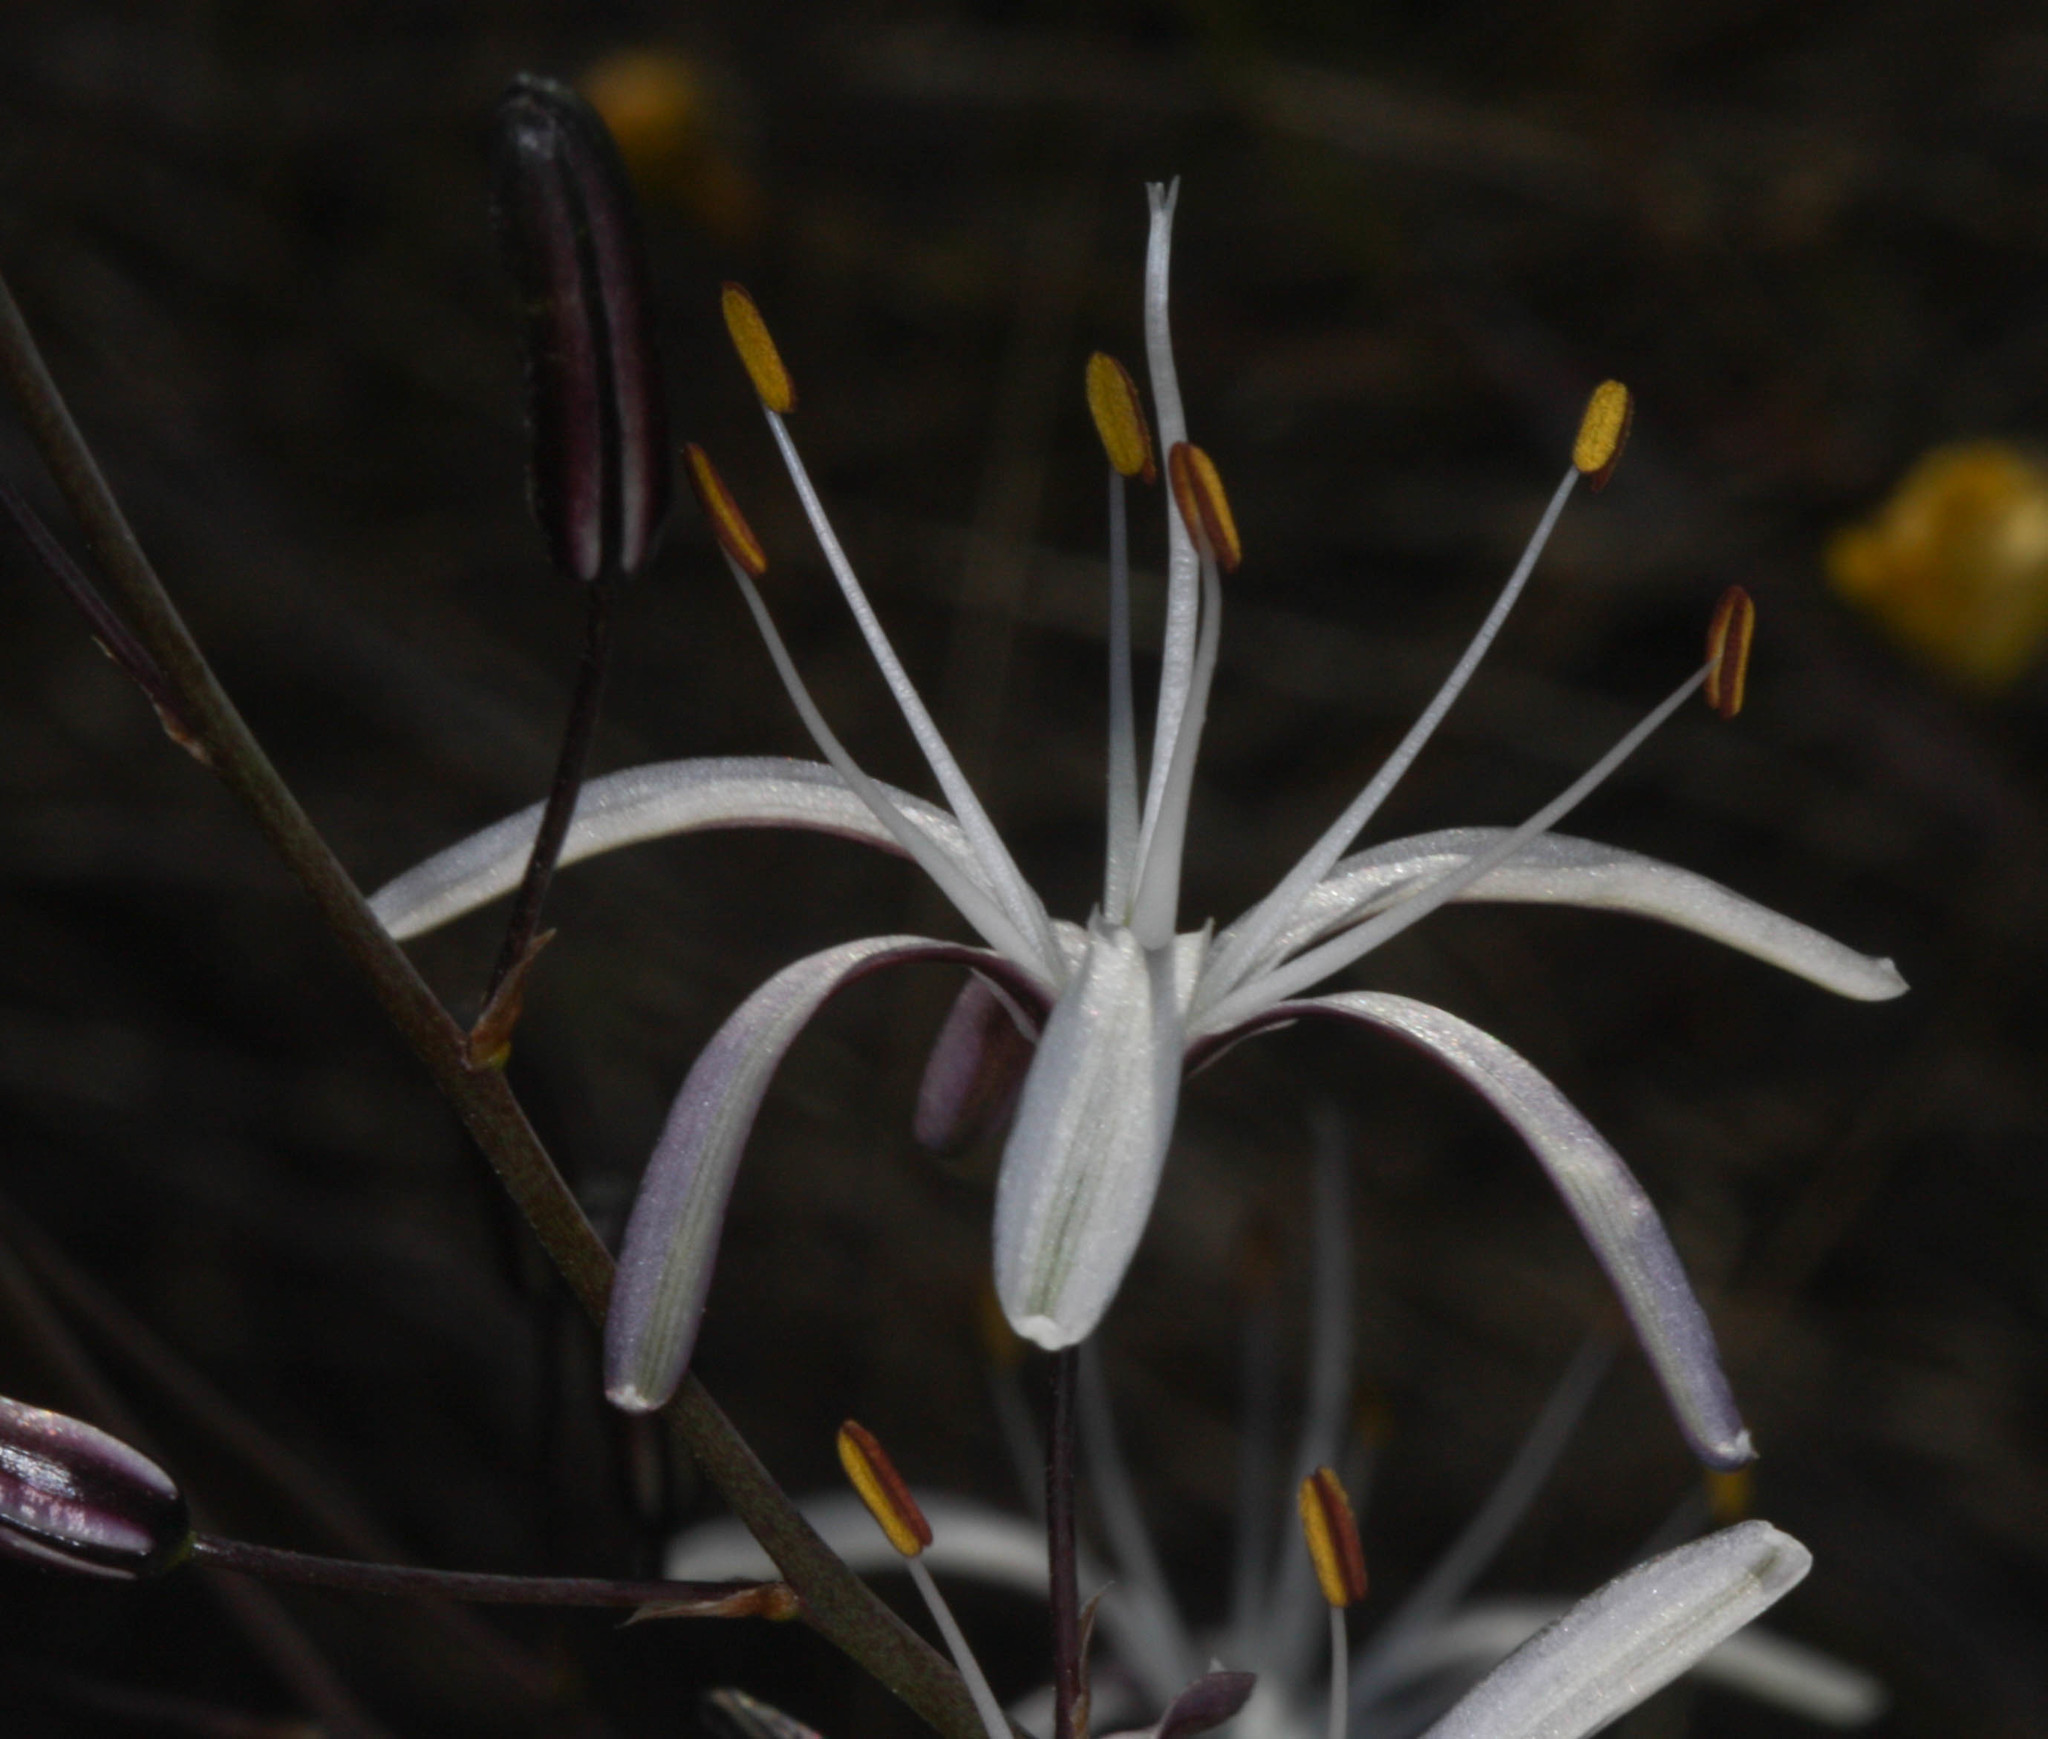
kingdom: Plantae
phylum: Tracheophyta
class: Liliopsida
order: Asparagales
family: Asparagaceae
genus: Chlorogalum
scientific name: Chlorogalum pomeridianum
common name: Amole
